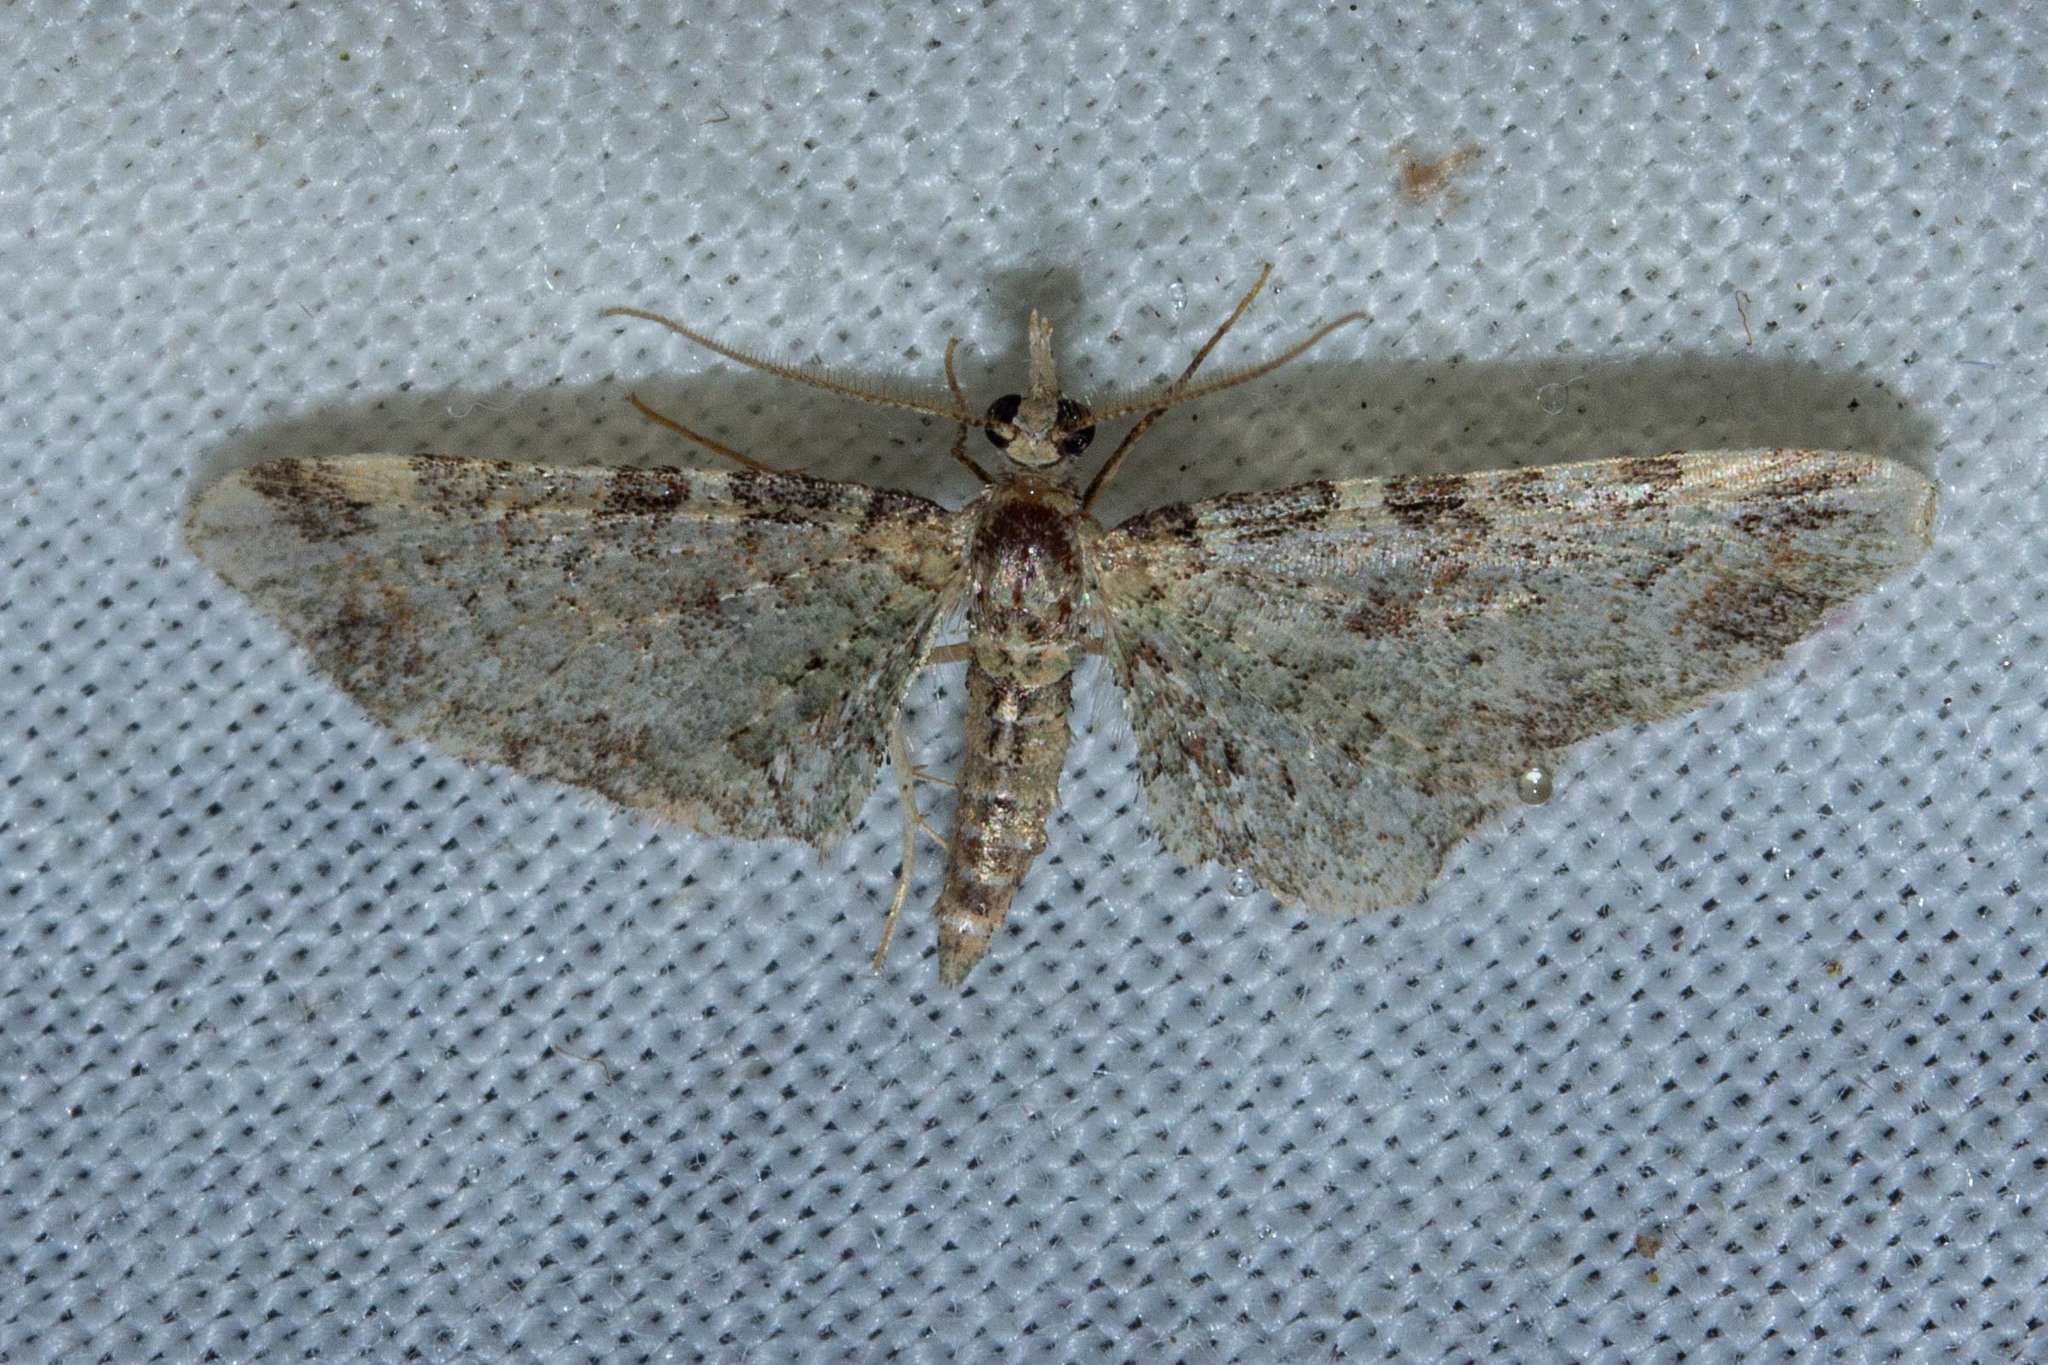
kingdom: Animalia
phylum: Arthropoda
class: Insecta
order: Lepidoptera
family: Geometridae
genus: Pasiphila
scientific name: Pasiphila plinthina
